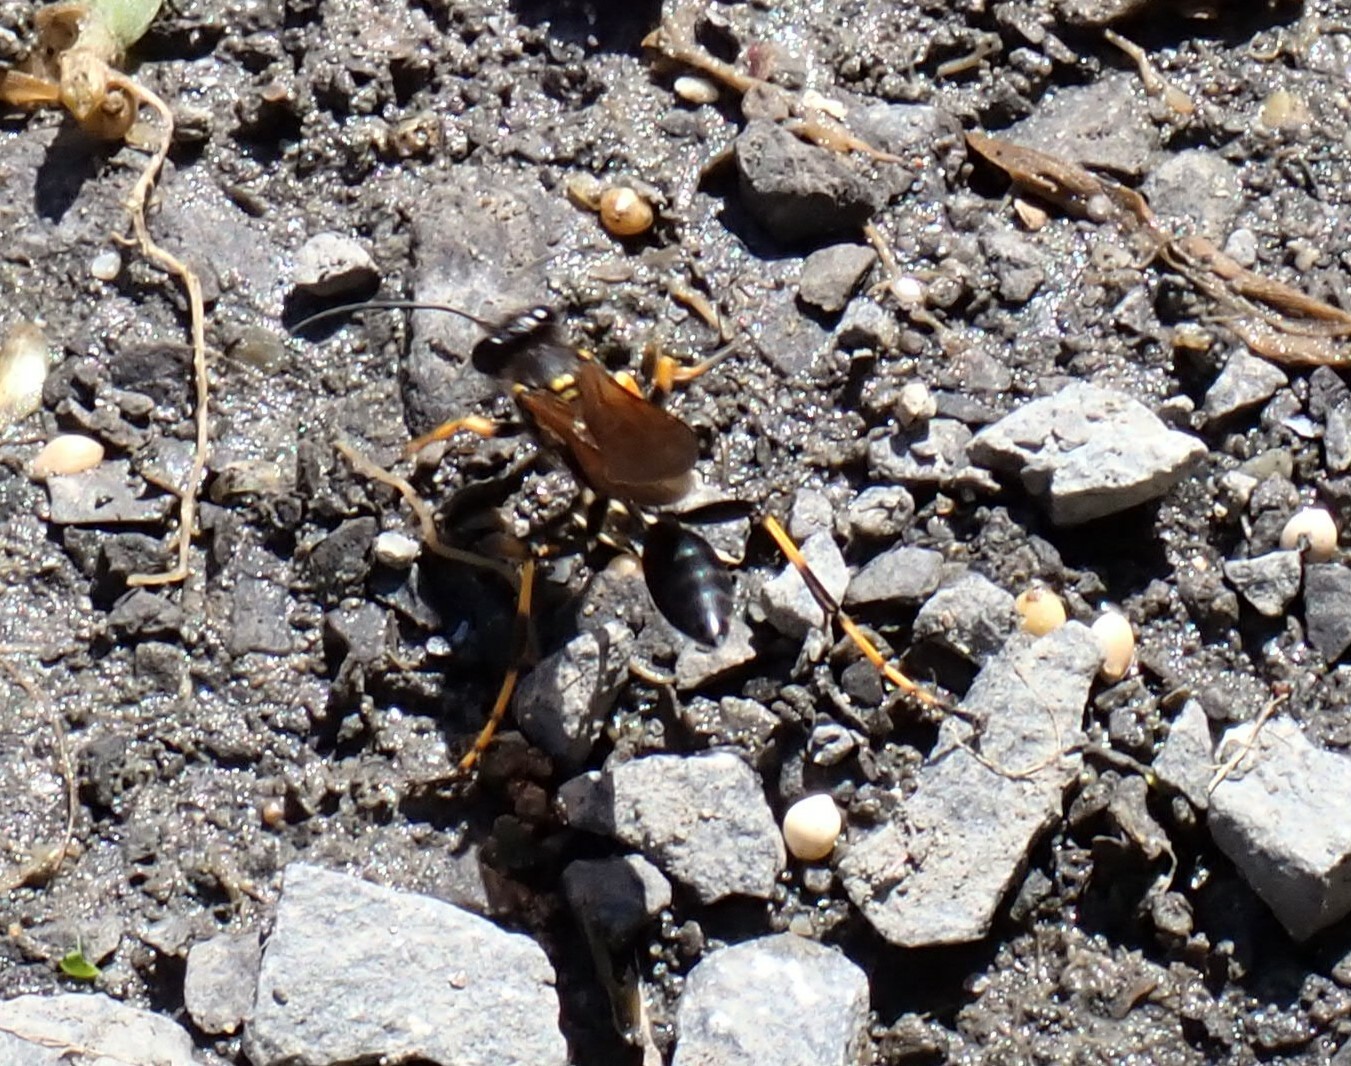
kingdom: Animalia
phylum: Arthropoda
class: Insecta
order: Hymenoptera
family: Sphecidae
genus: Sceliphron
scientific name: Sceliphron caementarium
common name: Mud dauber
